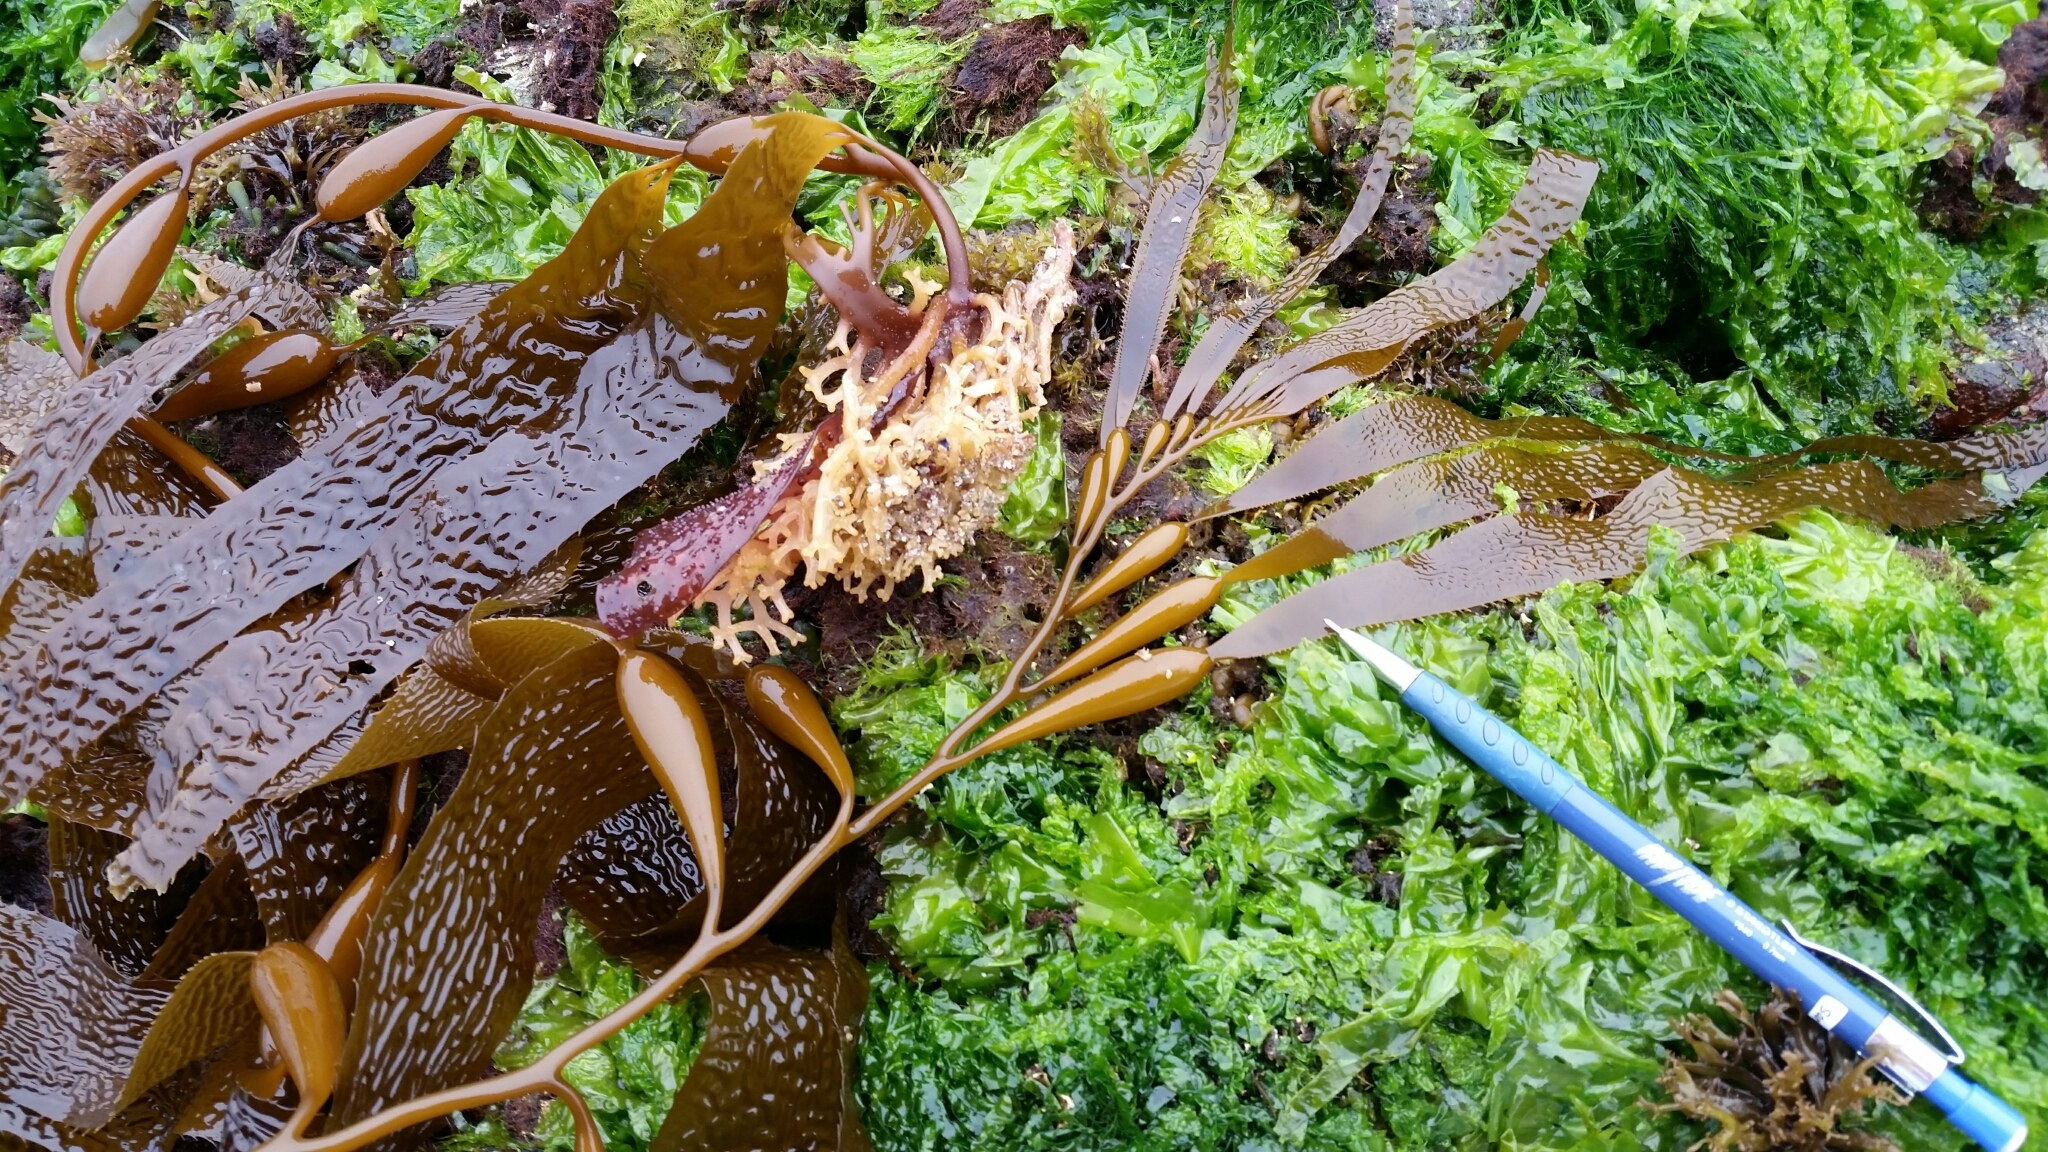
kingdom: Chromista
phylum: Ochrophyta
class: Phaeophyceae
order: Laminariales
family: Laminariaceae
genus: Macrocystis
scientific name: Macrocystis pyrifera
